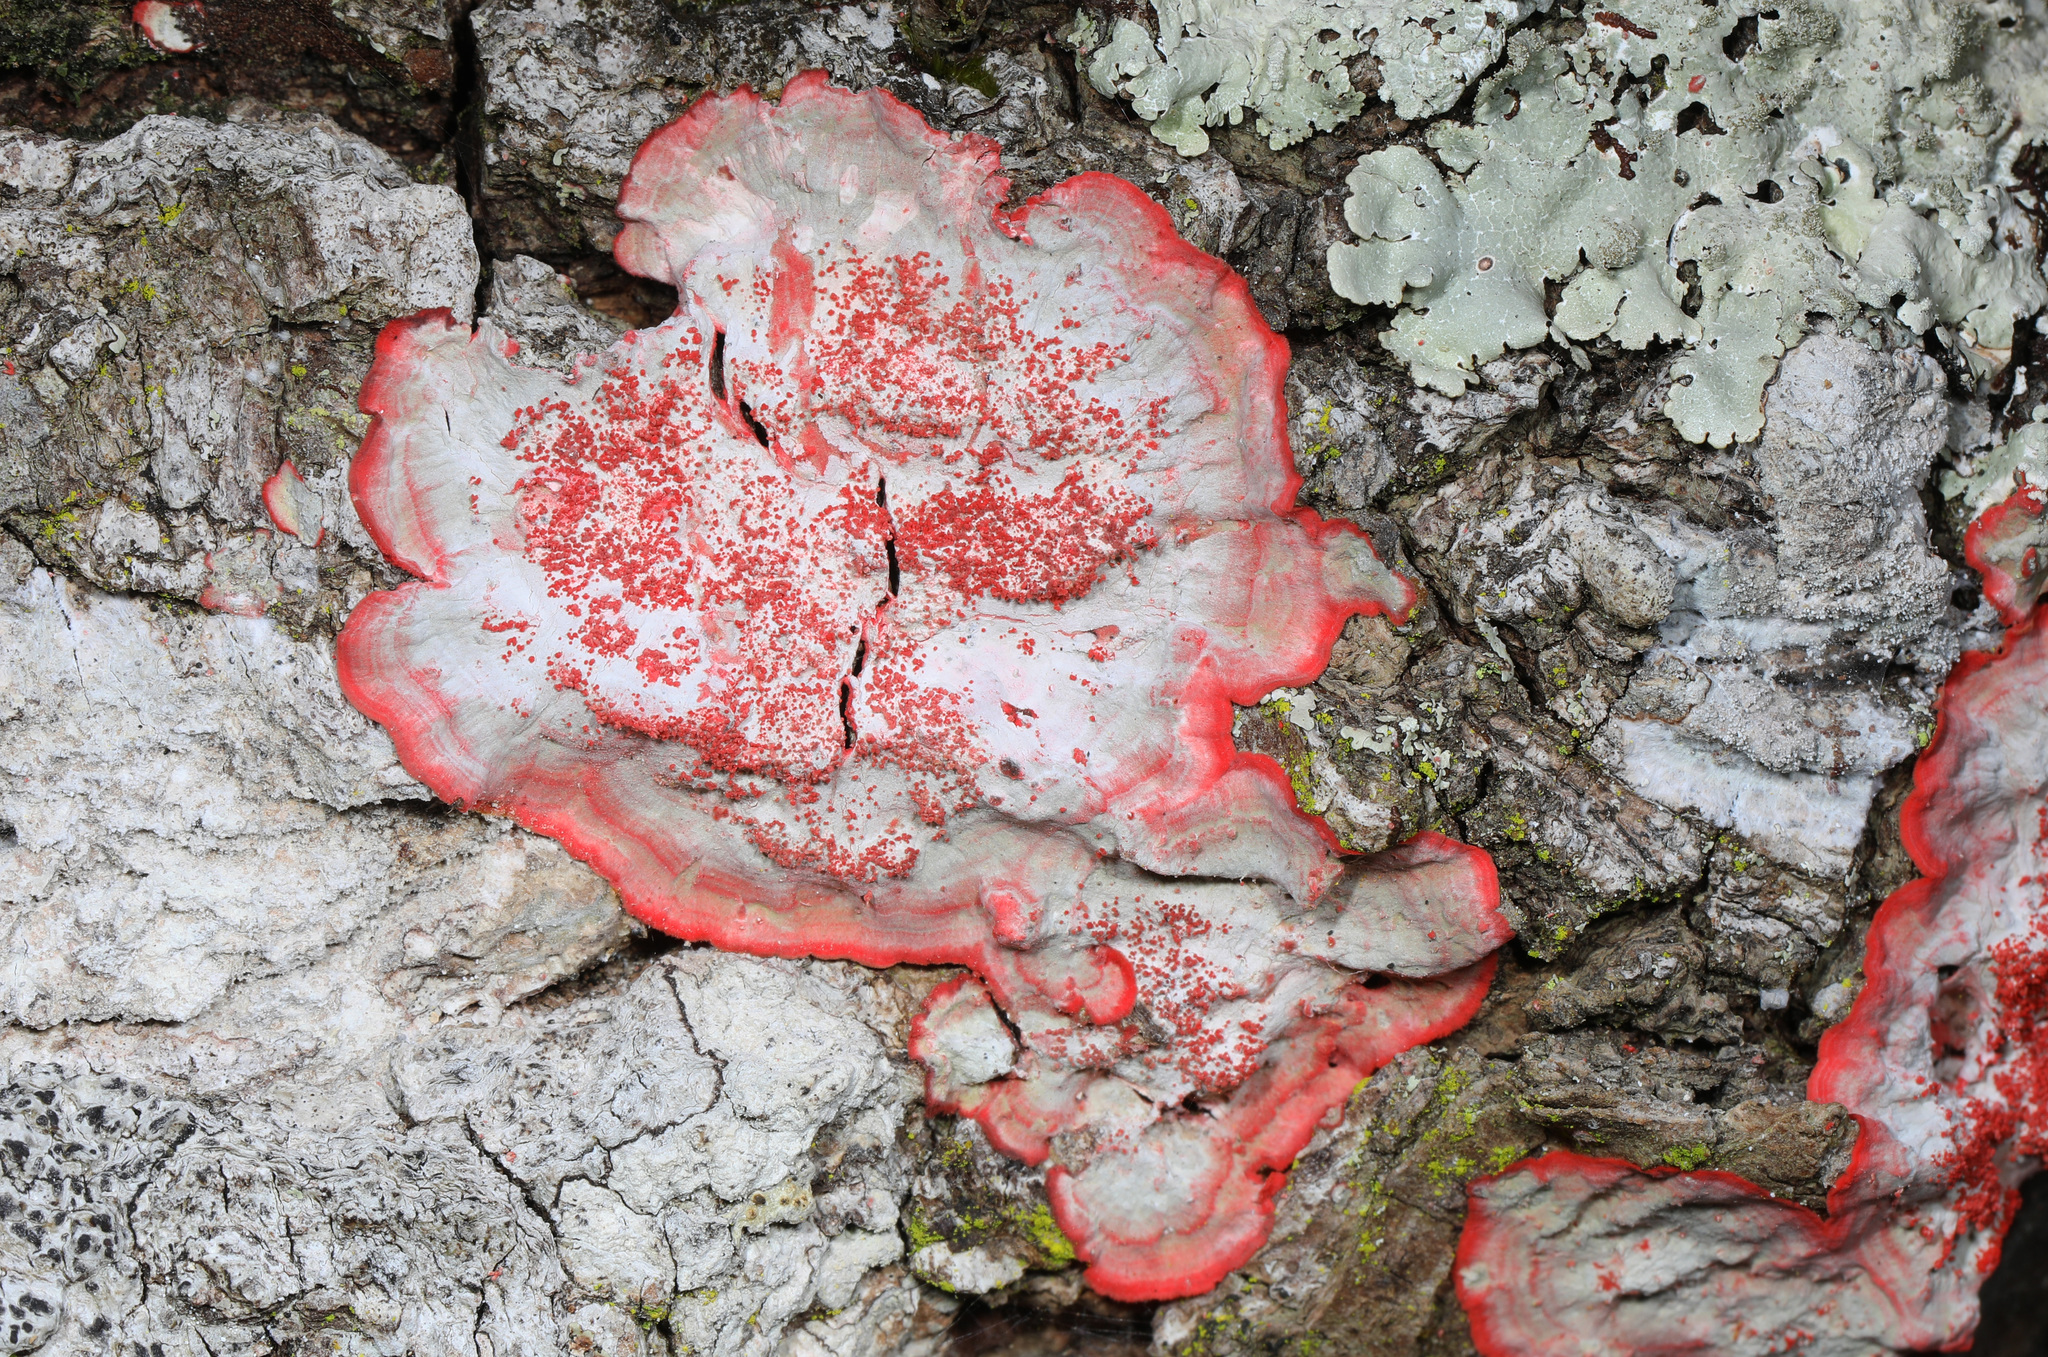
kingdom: Fungi
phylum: Ascomycota
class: Arthoniomycetes
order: Arthoniales
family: Arthoniaceae
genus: Herpothallon
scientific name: Herpothallon rubrocinctum
